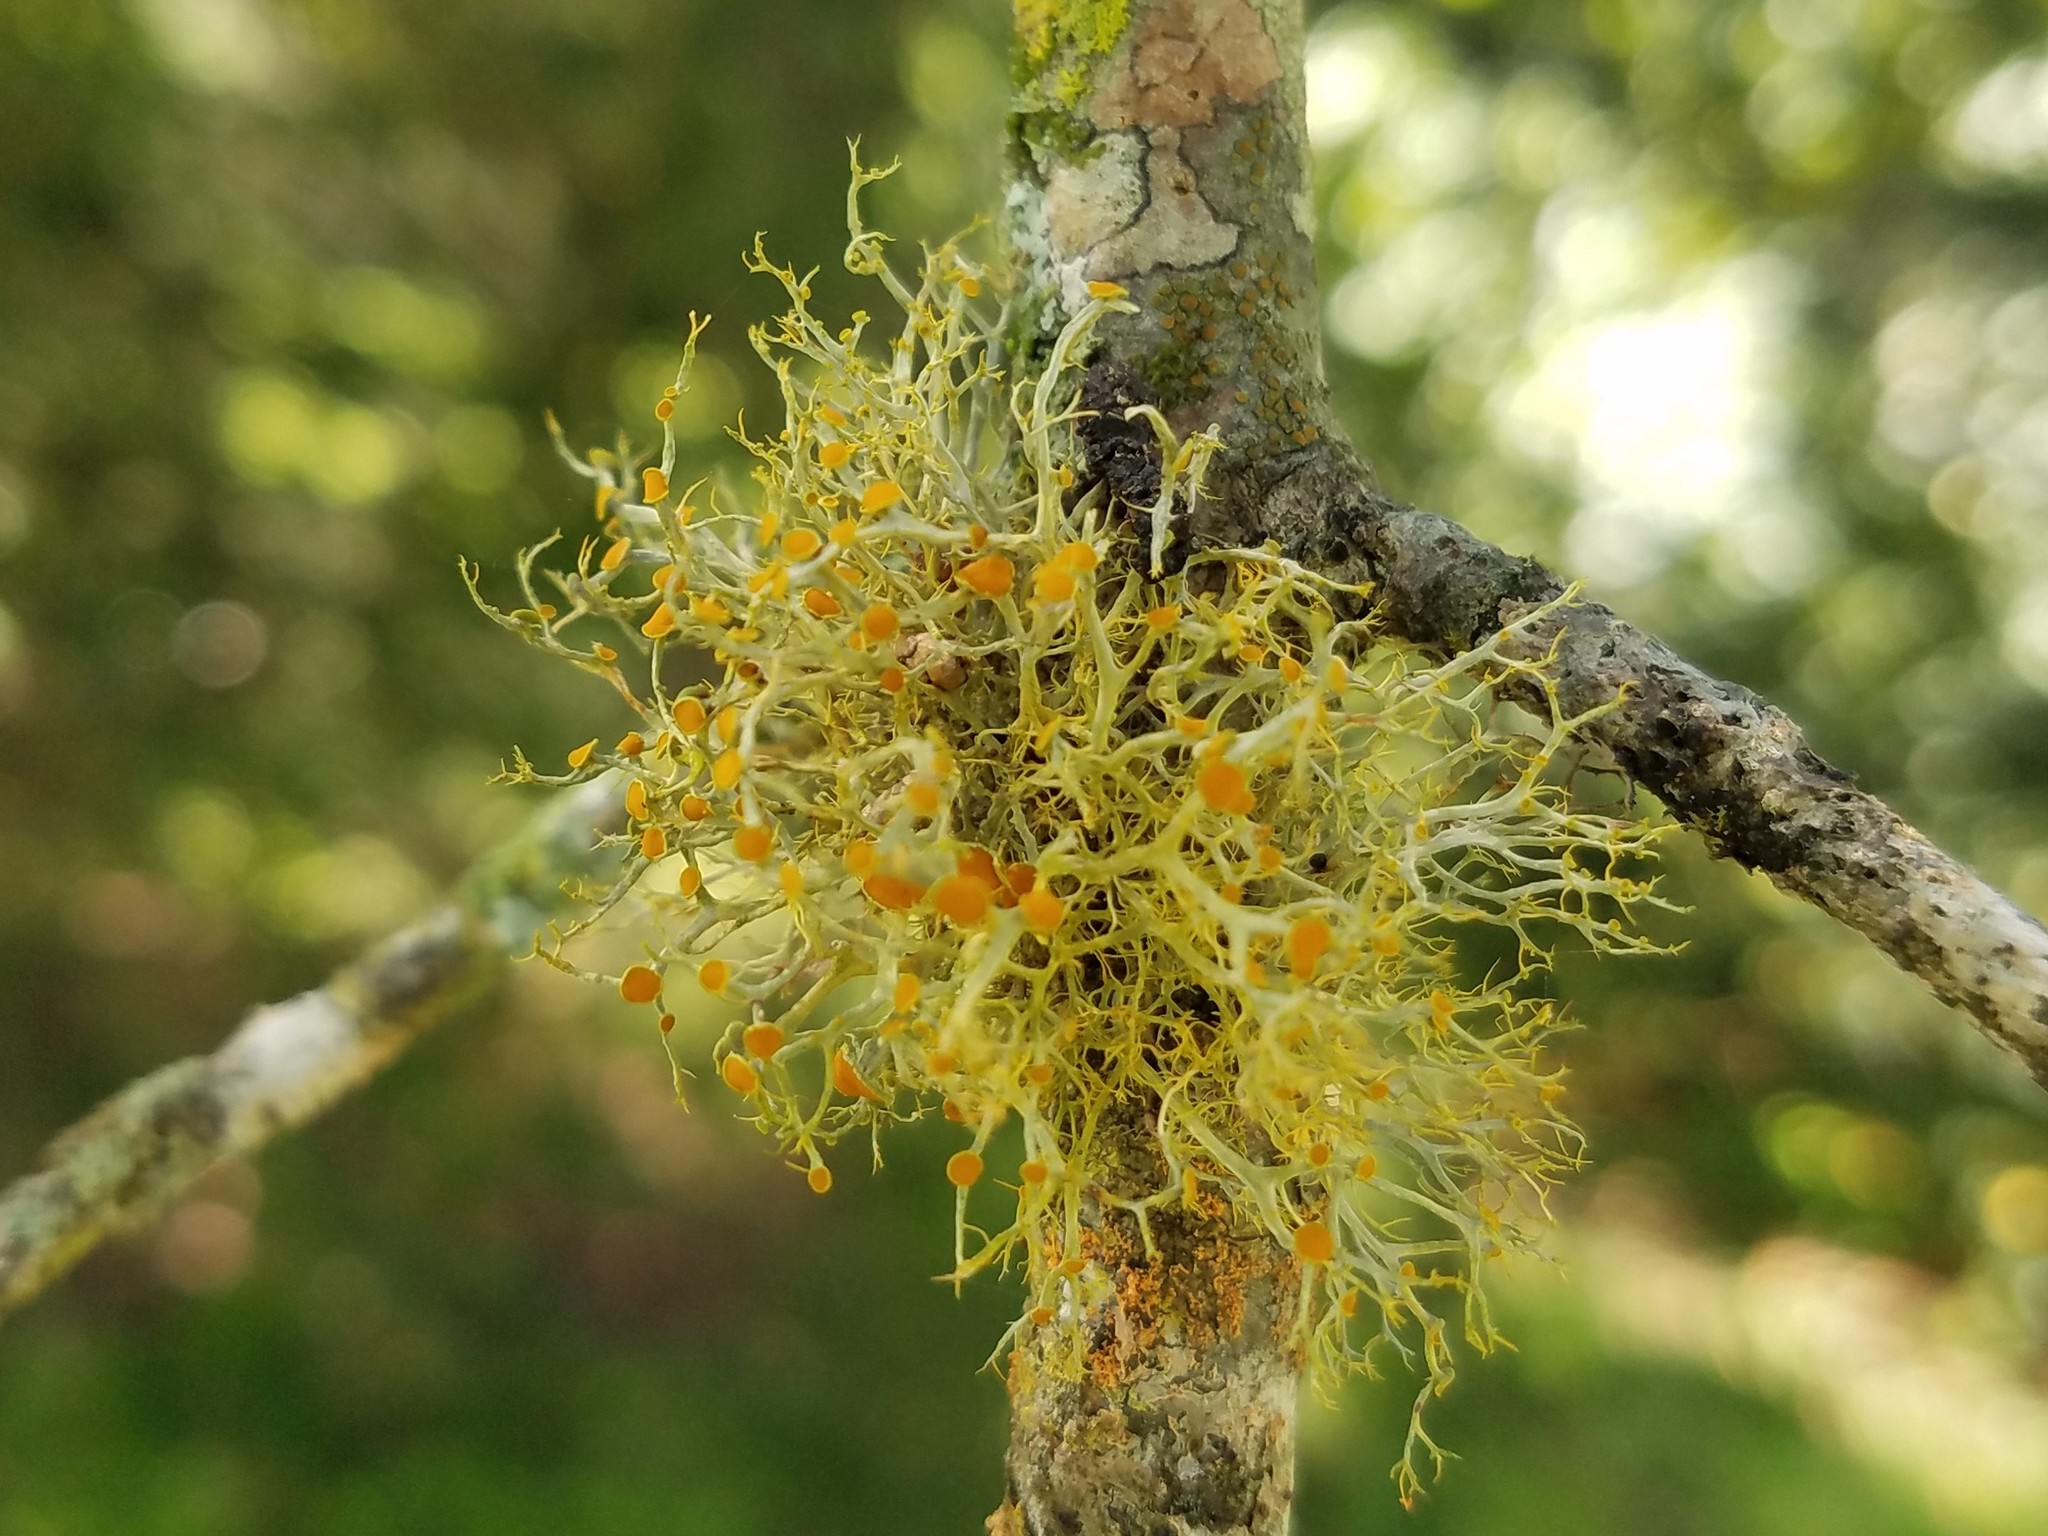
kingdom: Fungi
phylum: Ascomycota
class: Lecanoromycetes
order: Teloschistales
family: Teloschistaceae
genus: Teloschistes
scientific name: Teloschistes exilis
